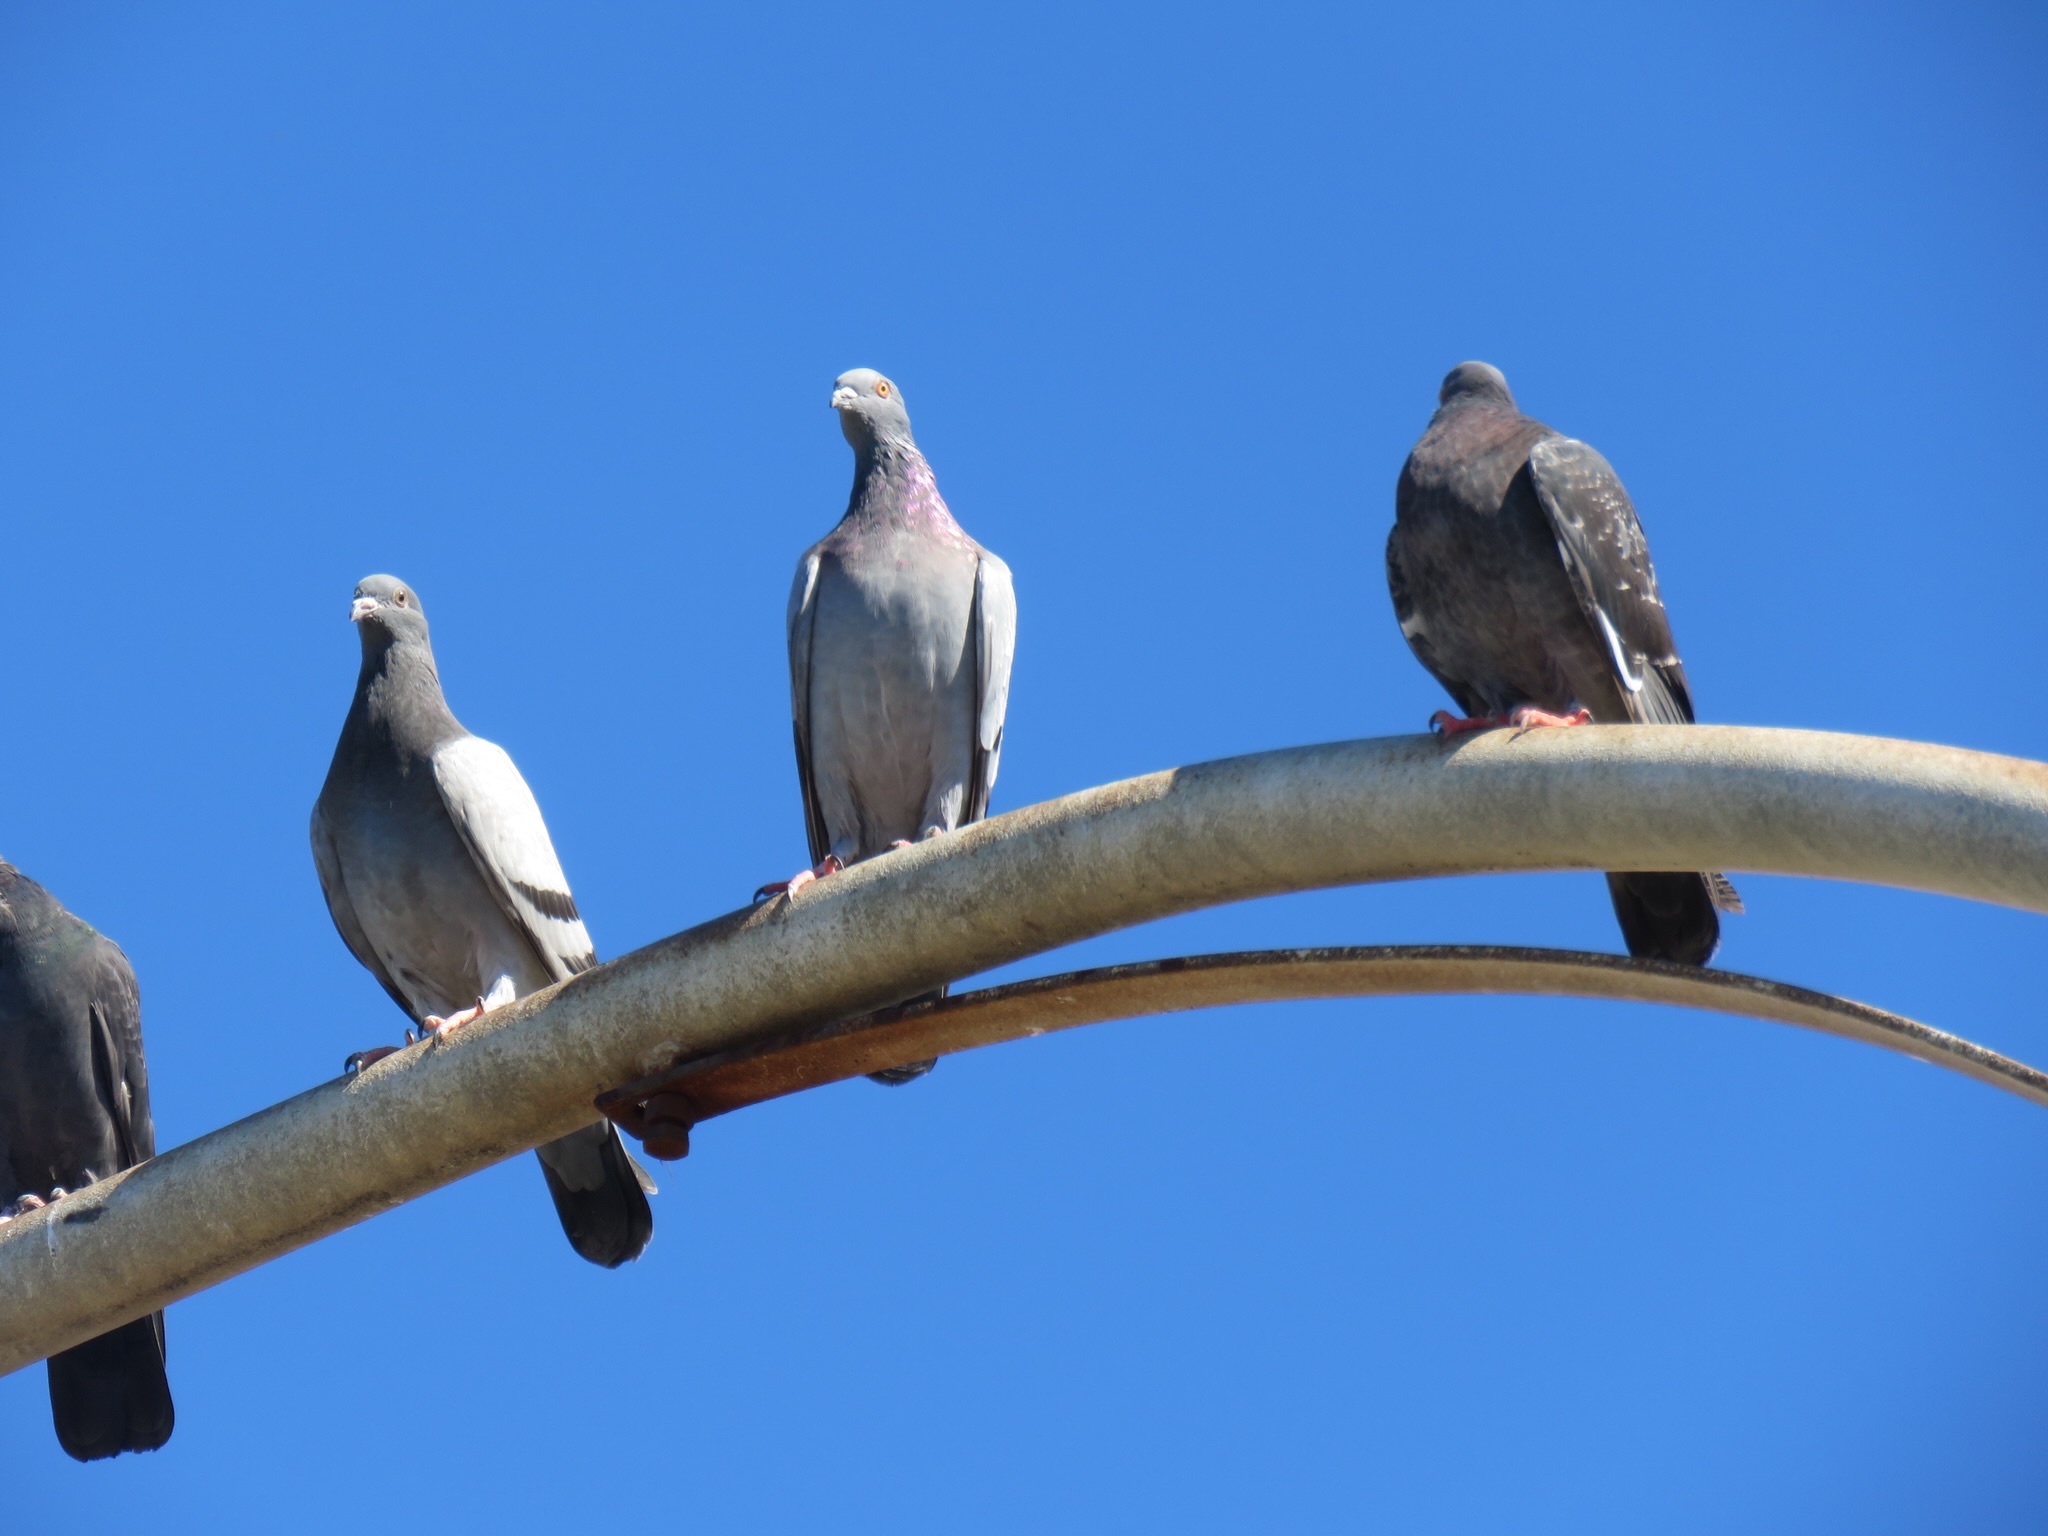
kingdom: Animalia
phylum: Chordata
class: Aves
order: Columbiformes
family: Columbidae
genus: Columba
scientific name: Columba livia
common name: Rock pigeon
